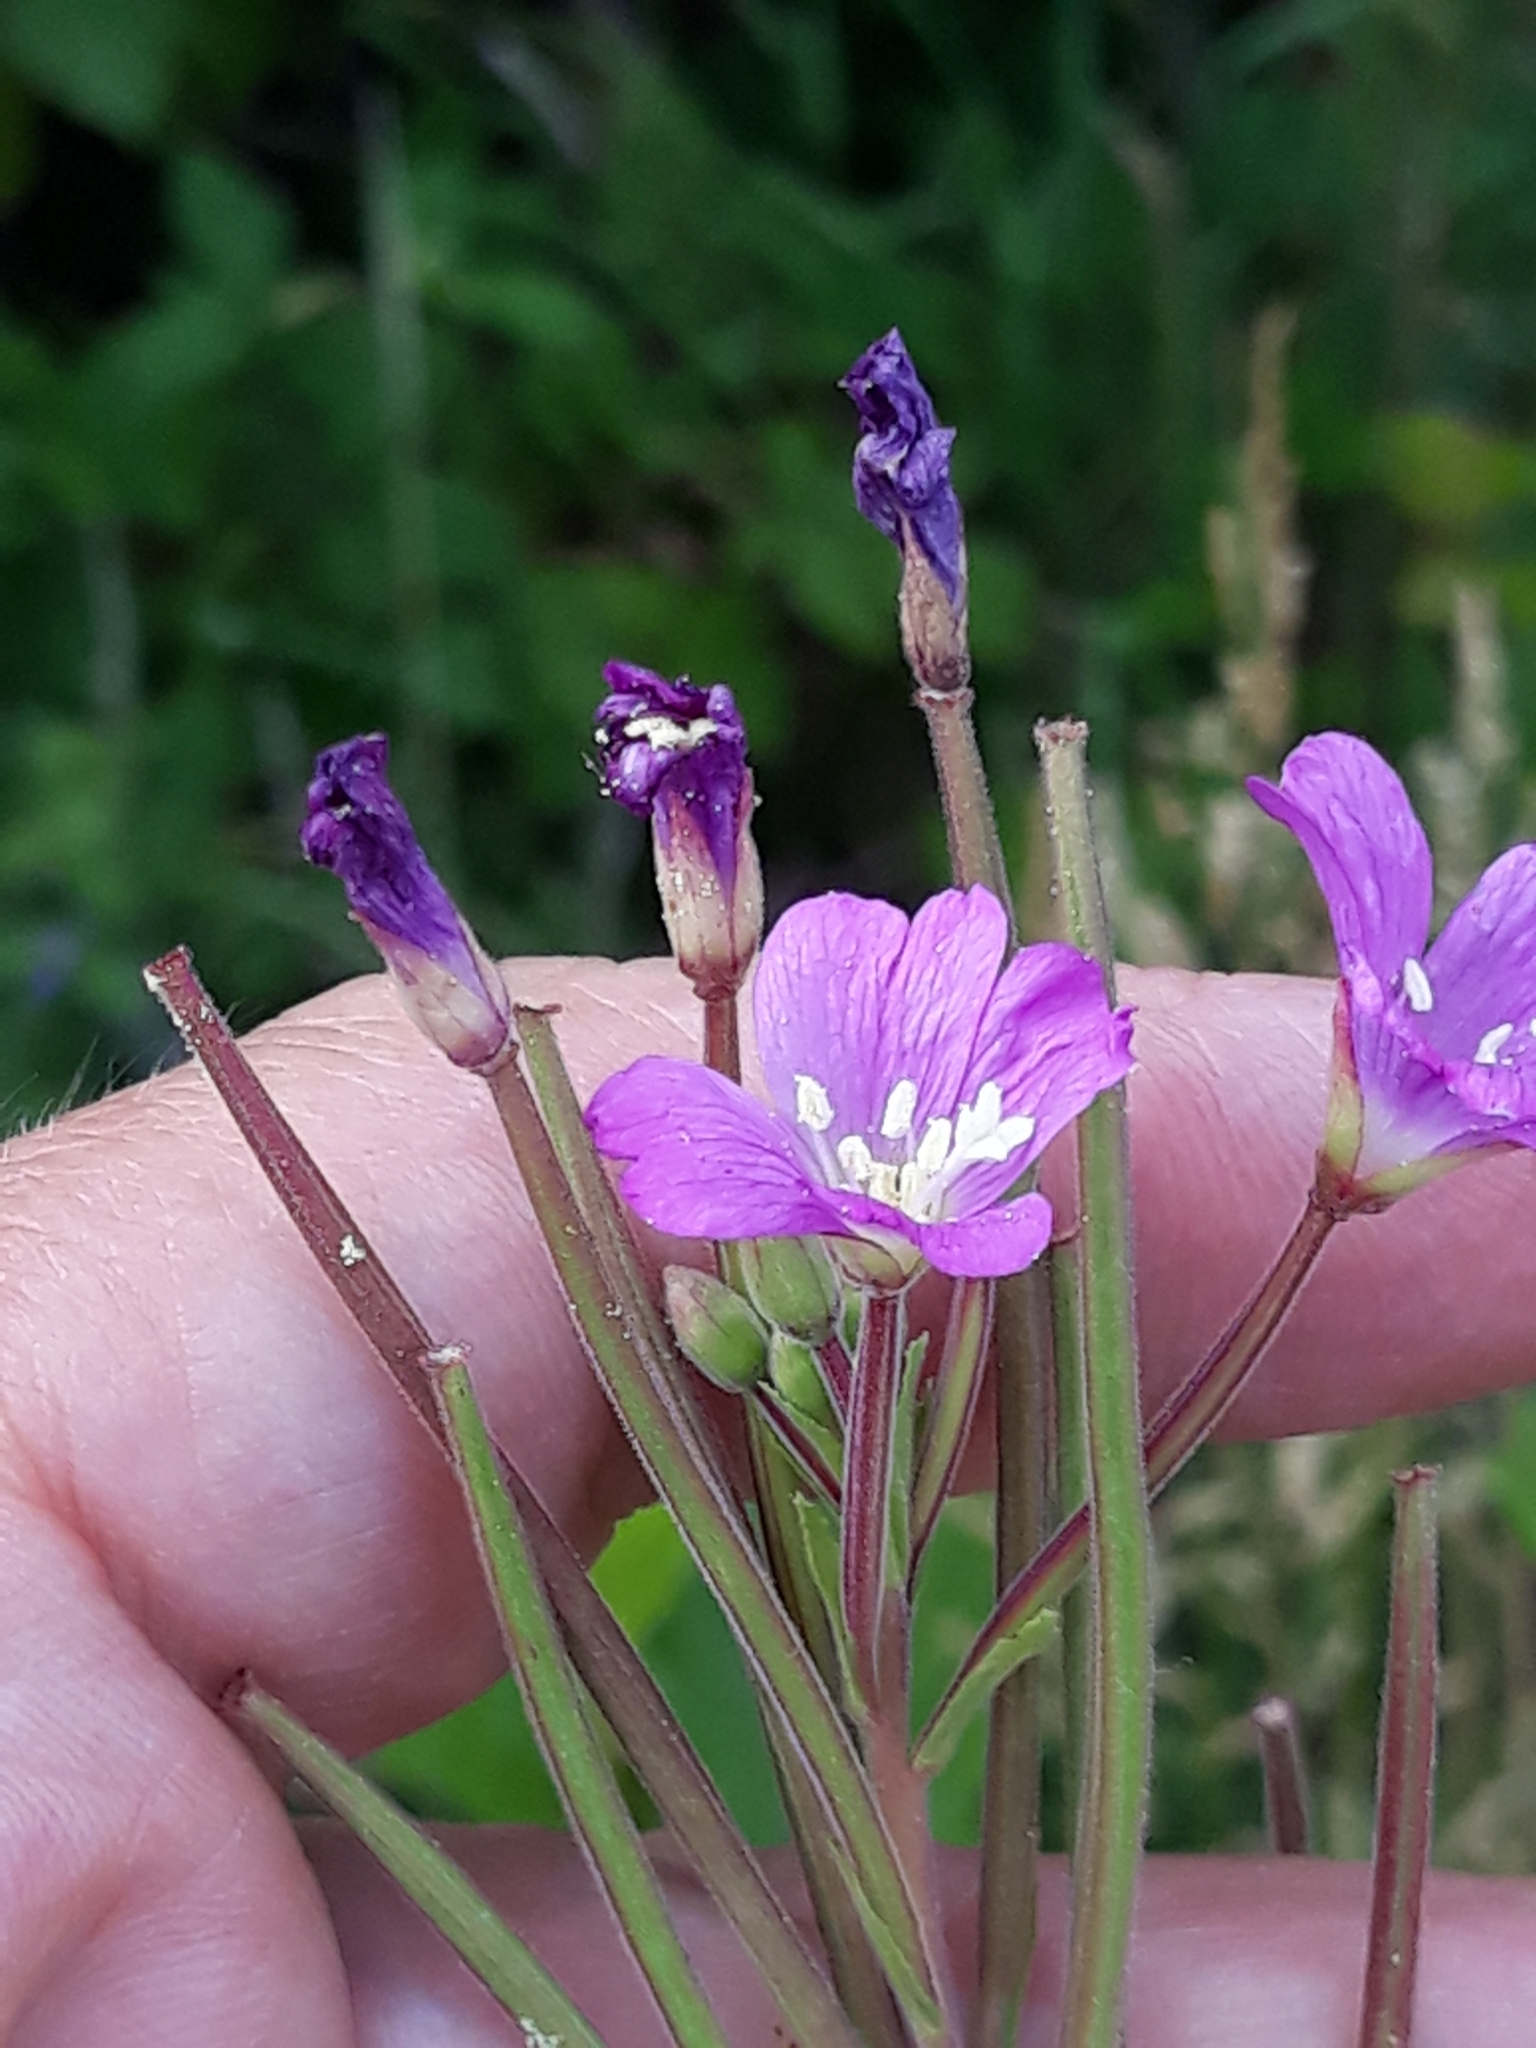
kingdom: Plantae
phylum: Tracheophyta
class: Magnoliopsida
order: Myrtales
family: Onagraceae
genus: Epilobium
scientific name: Epilobium hirsutum
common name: Great willowherb
